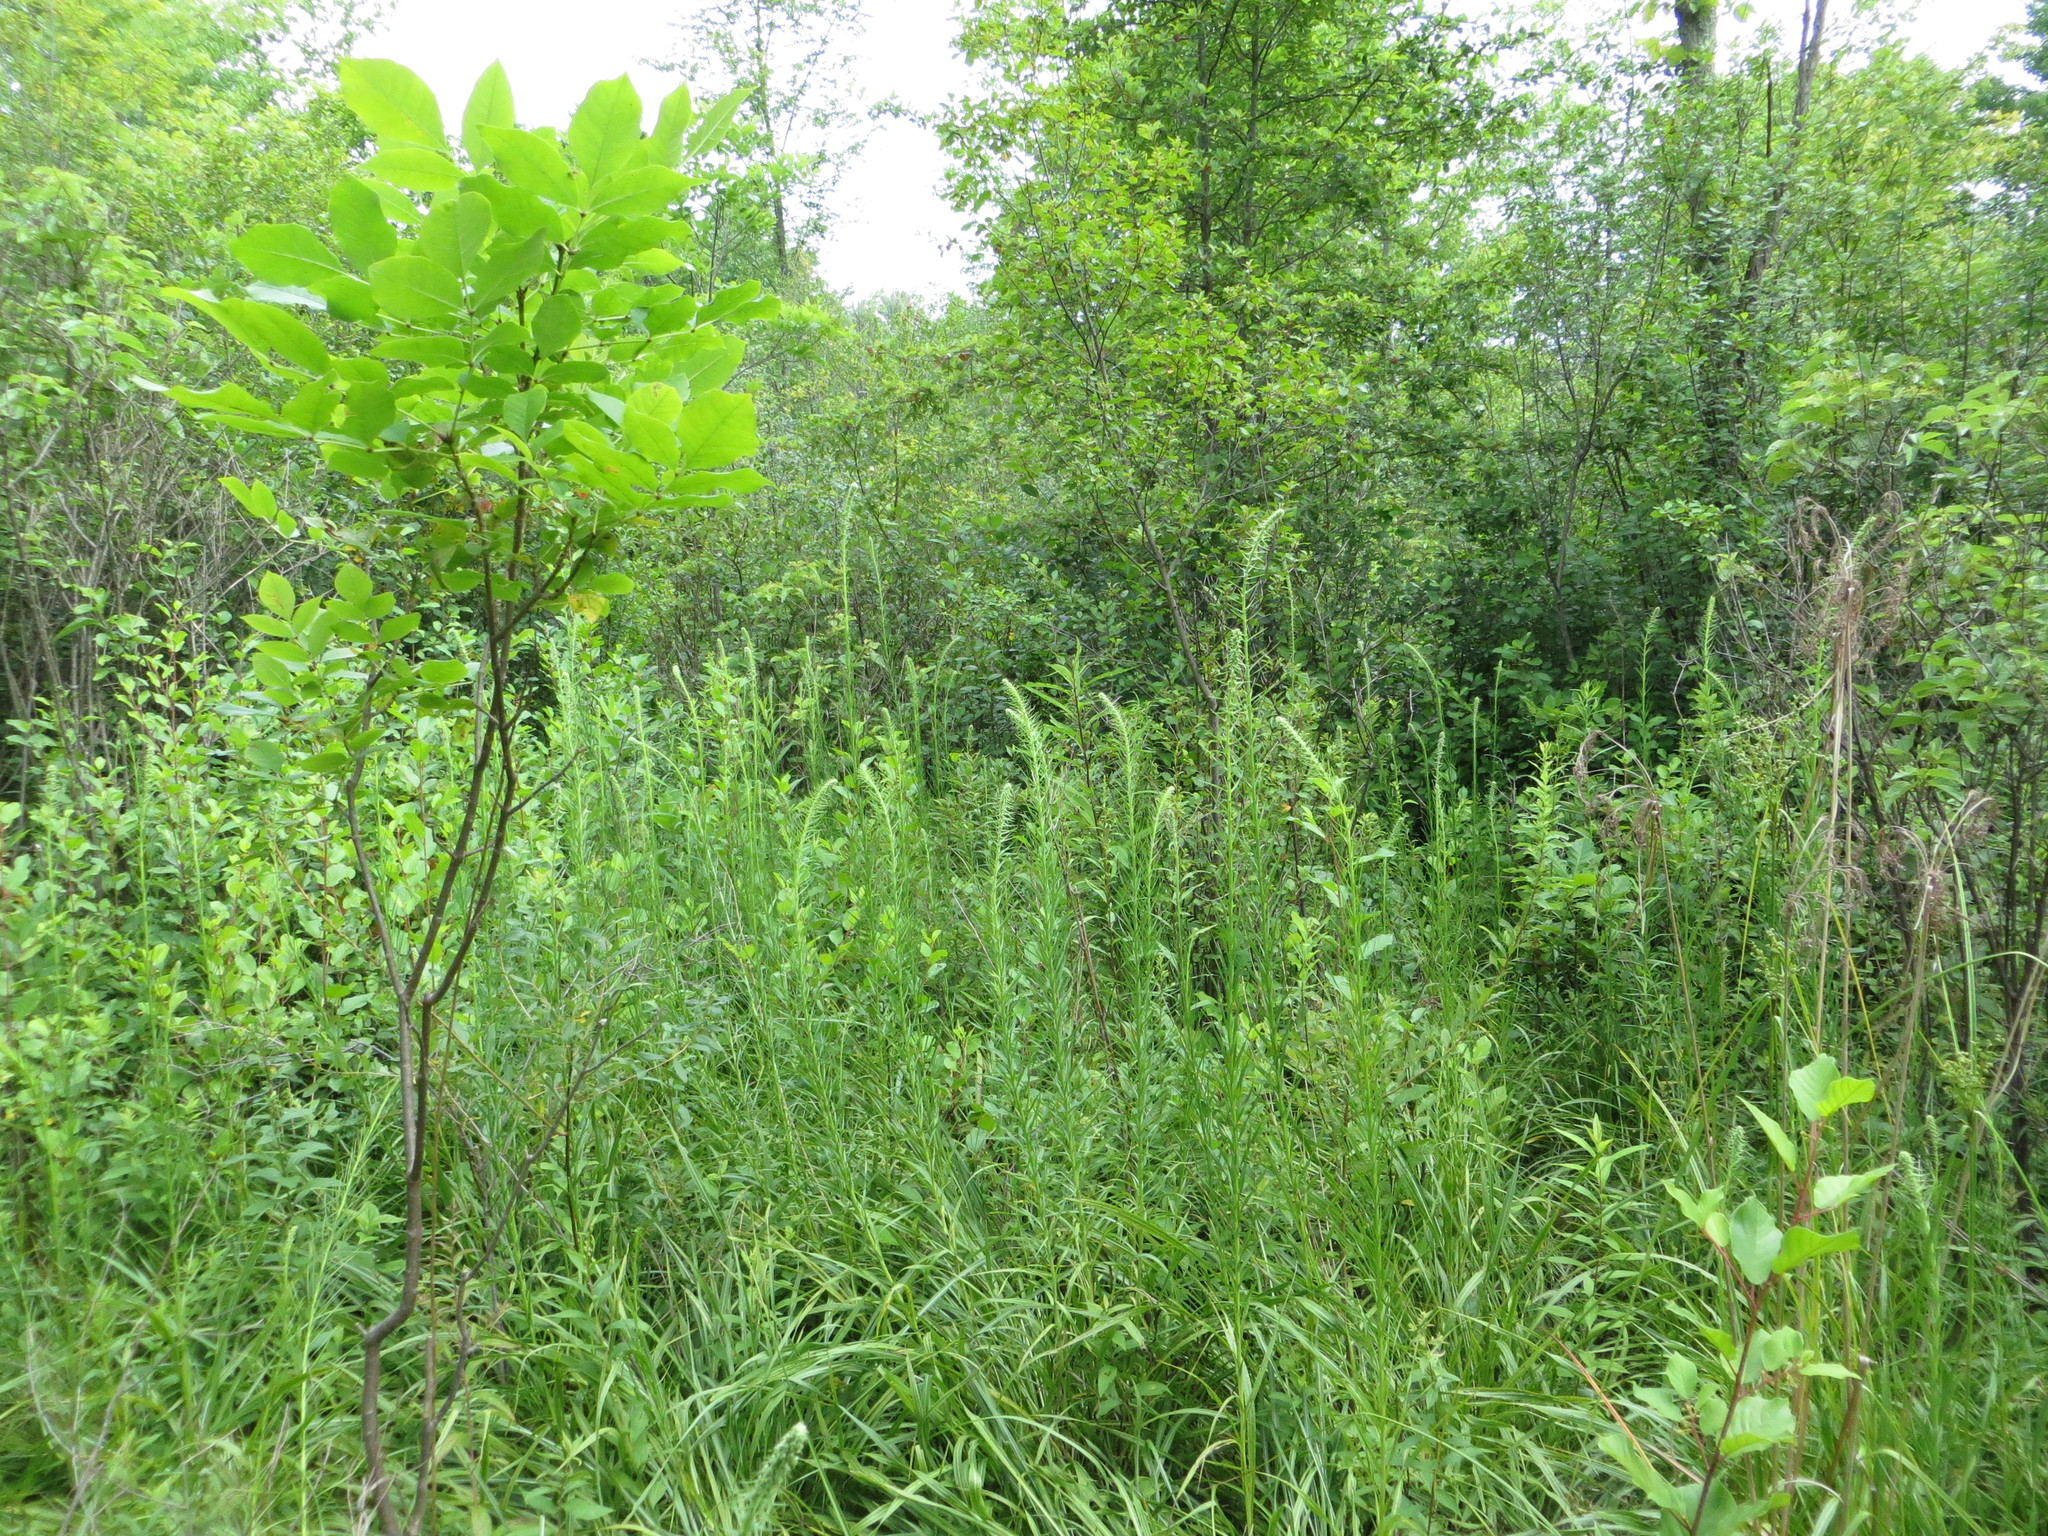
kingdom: Plantae
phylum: Tracheophyta
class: Magnoliopsida
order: Asterales
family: Asteraceae
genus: Liatris
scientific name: Liatris pycnostachya
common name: Cattail gayfeather
